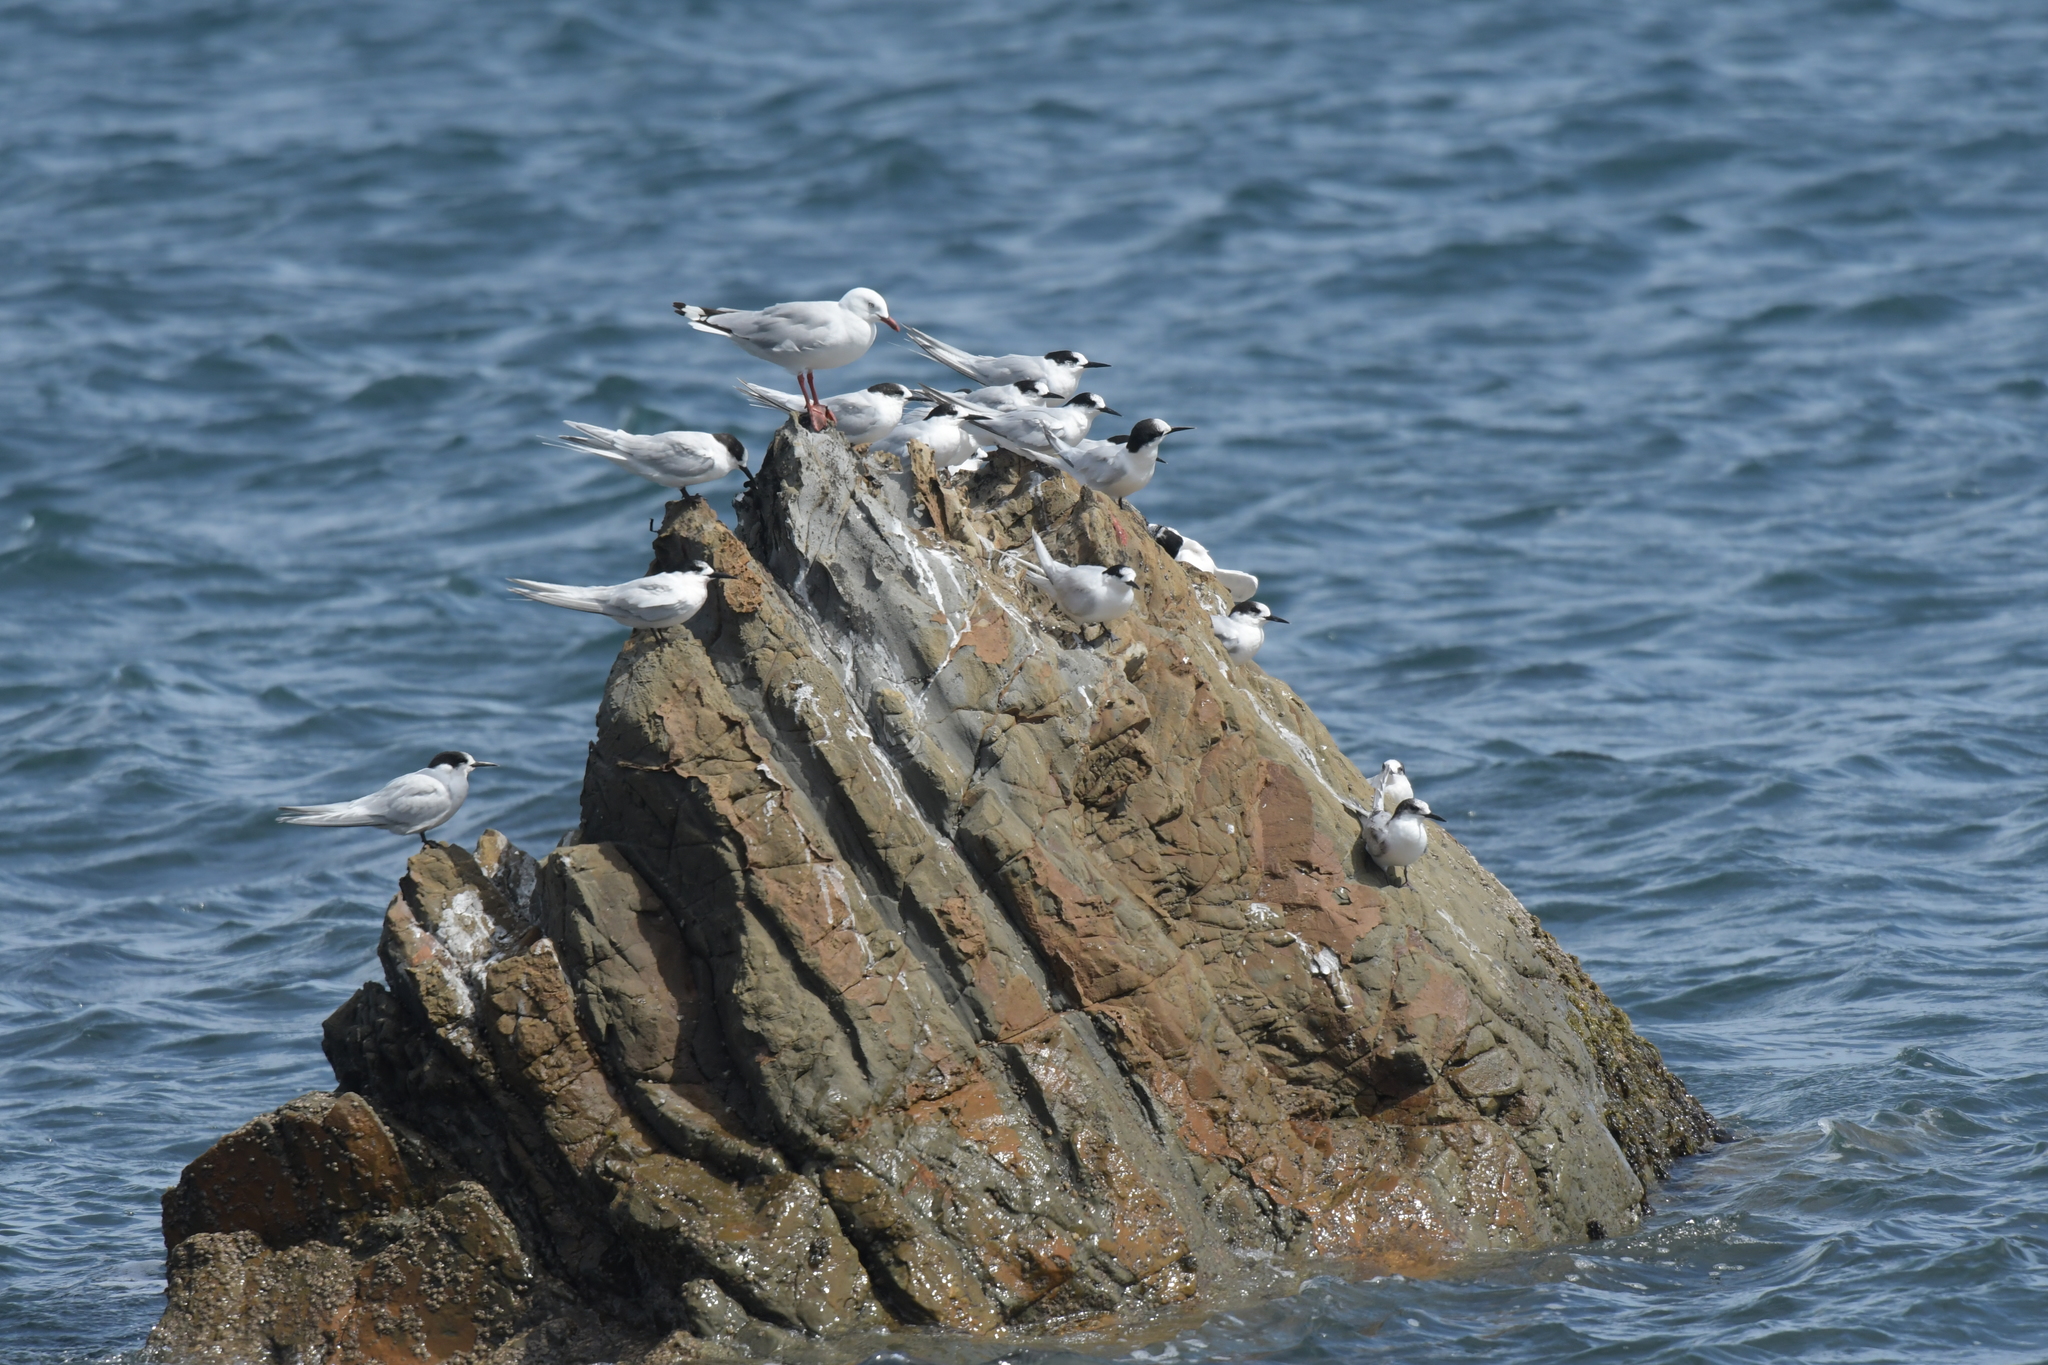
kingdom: Animalia
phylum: Chordata
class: Aves
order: Charadriiformes
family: Laridae
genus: Sterna
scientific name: Sterna striata
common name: White-fronted tern
